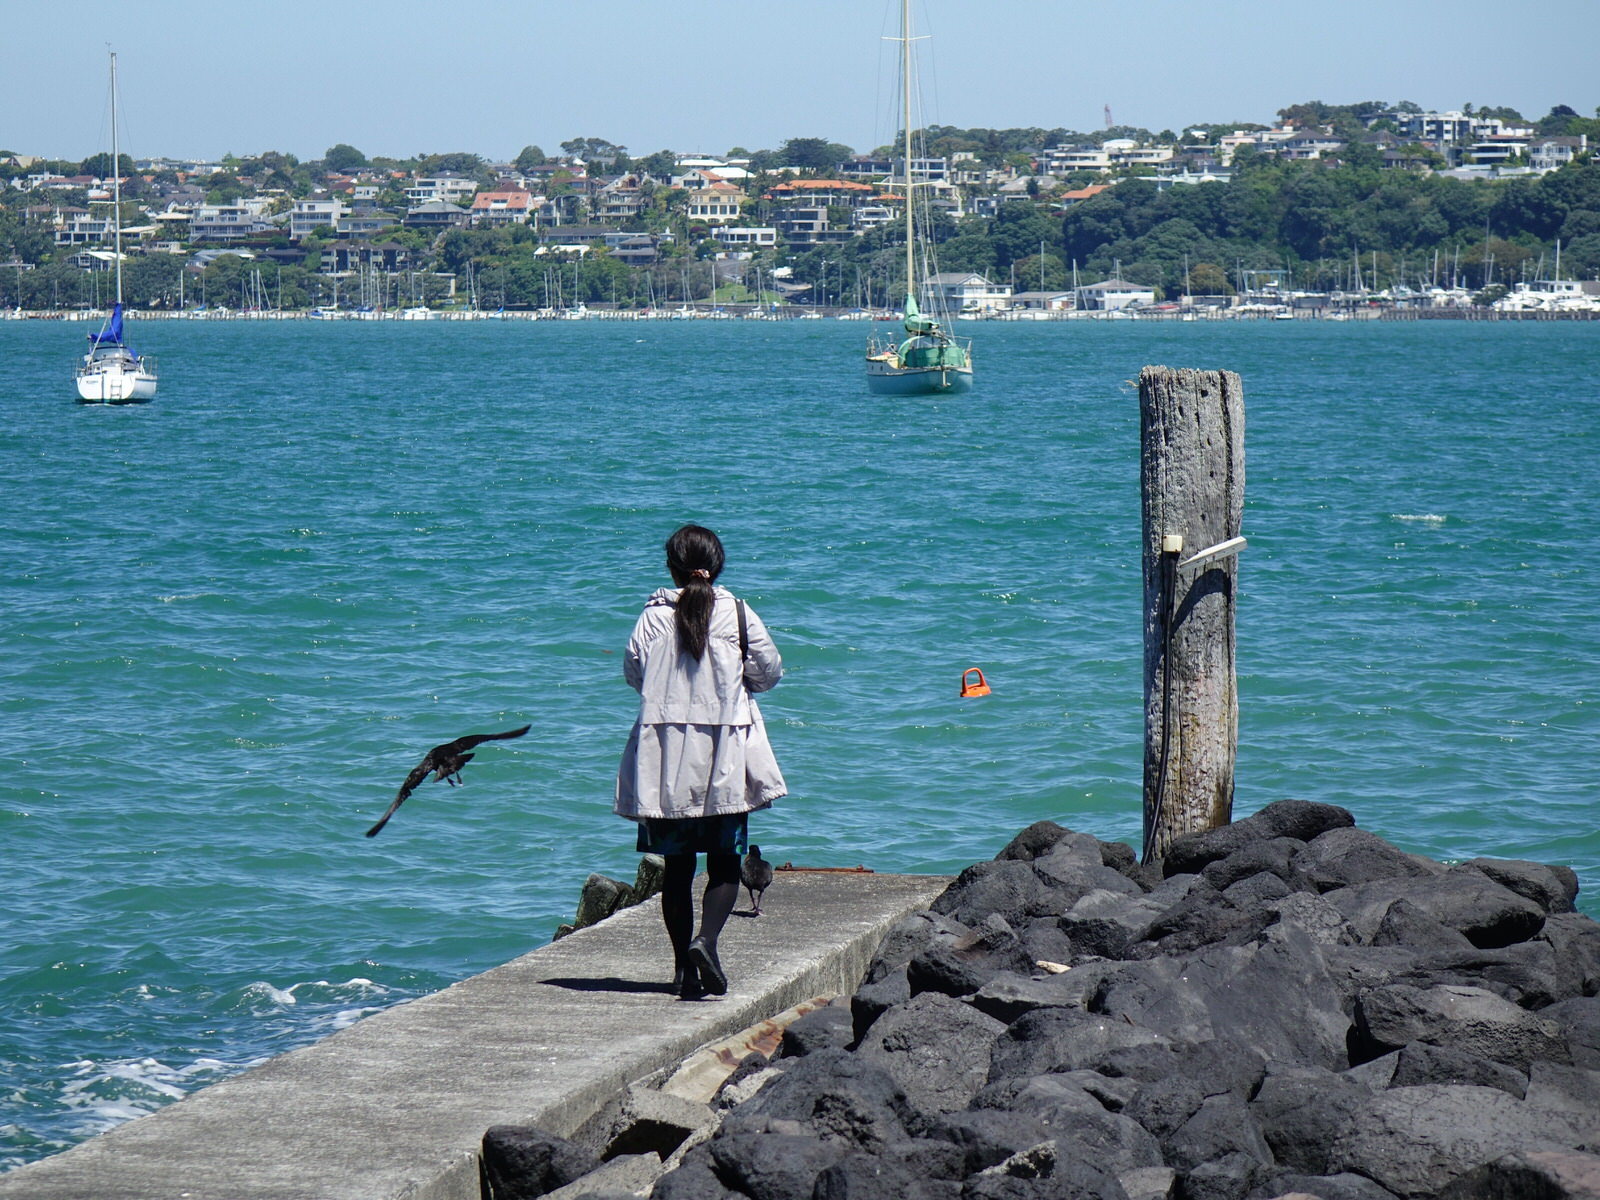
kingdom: Animalia
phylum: Chordata
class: Aves
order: Charadriiformes
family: Haematopodidae
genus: Haematopus
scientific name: Haematopus unicolor
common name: Variable oystercatcher
